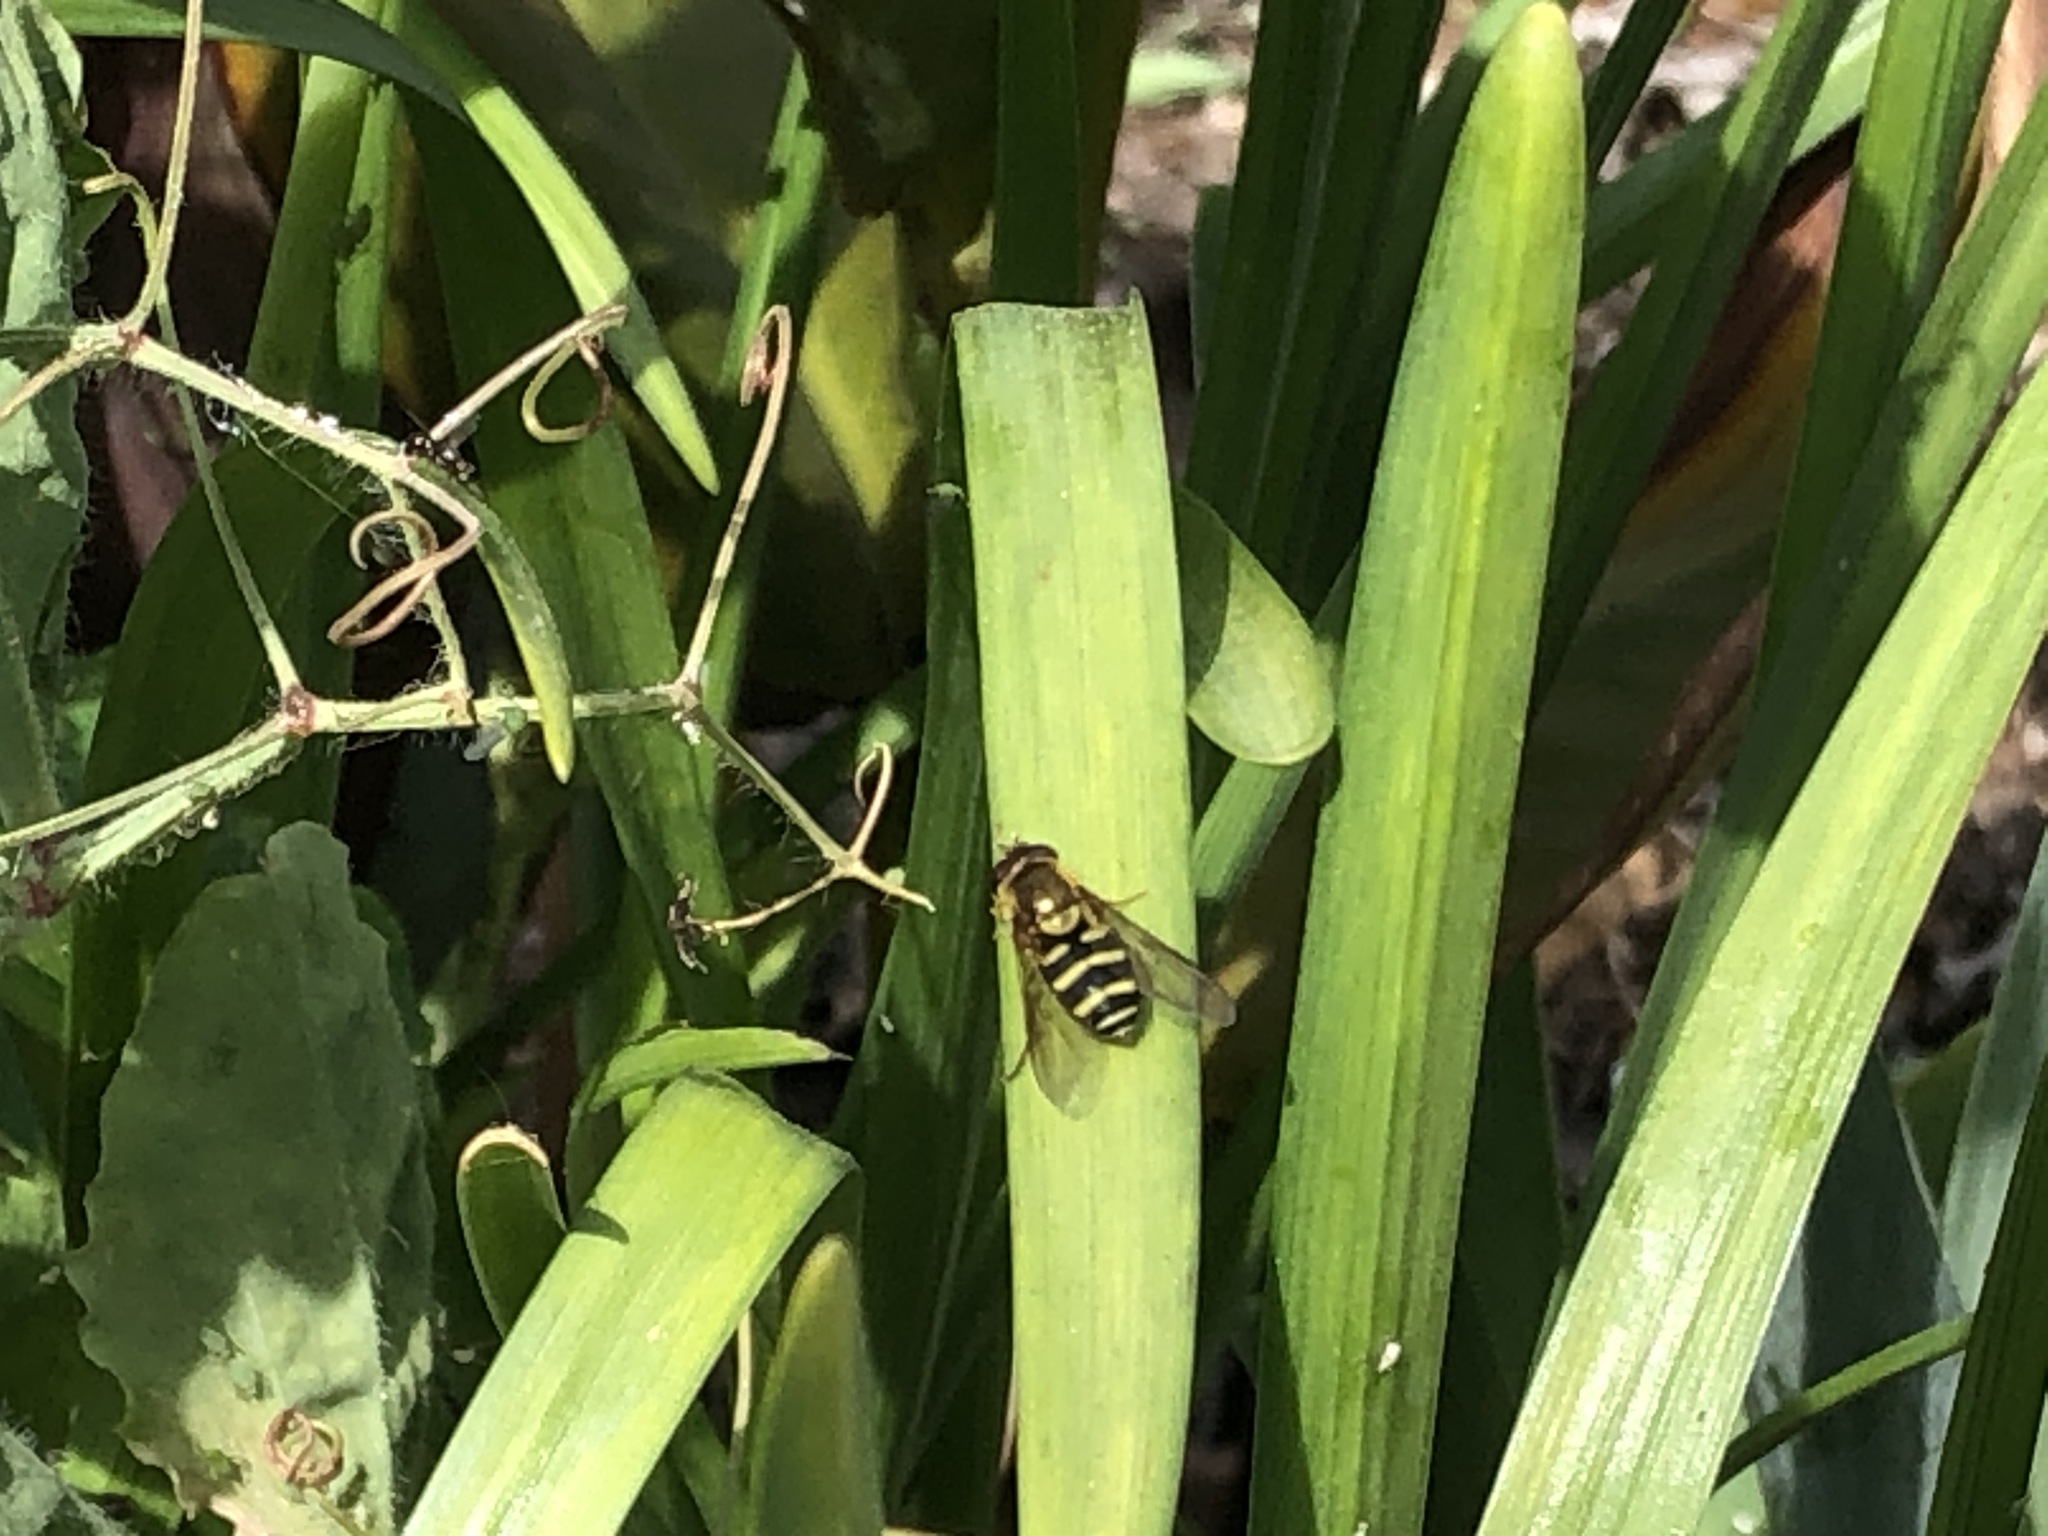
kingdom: Animalia
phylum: Arthropoda
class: Insecta
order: Diptera
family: Syrphidae
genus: Syrphus
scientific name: Syrphus opinator
